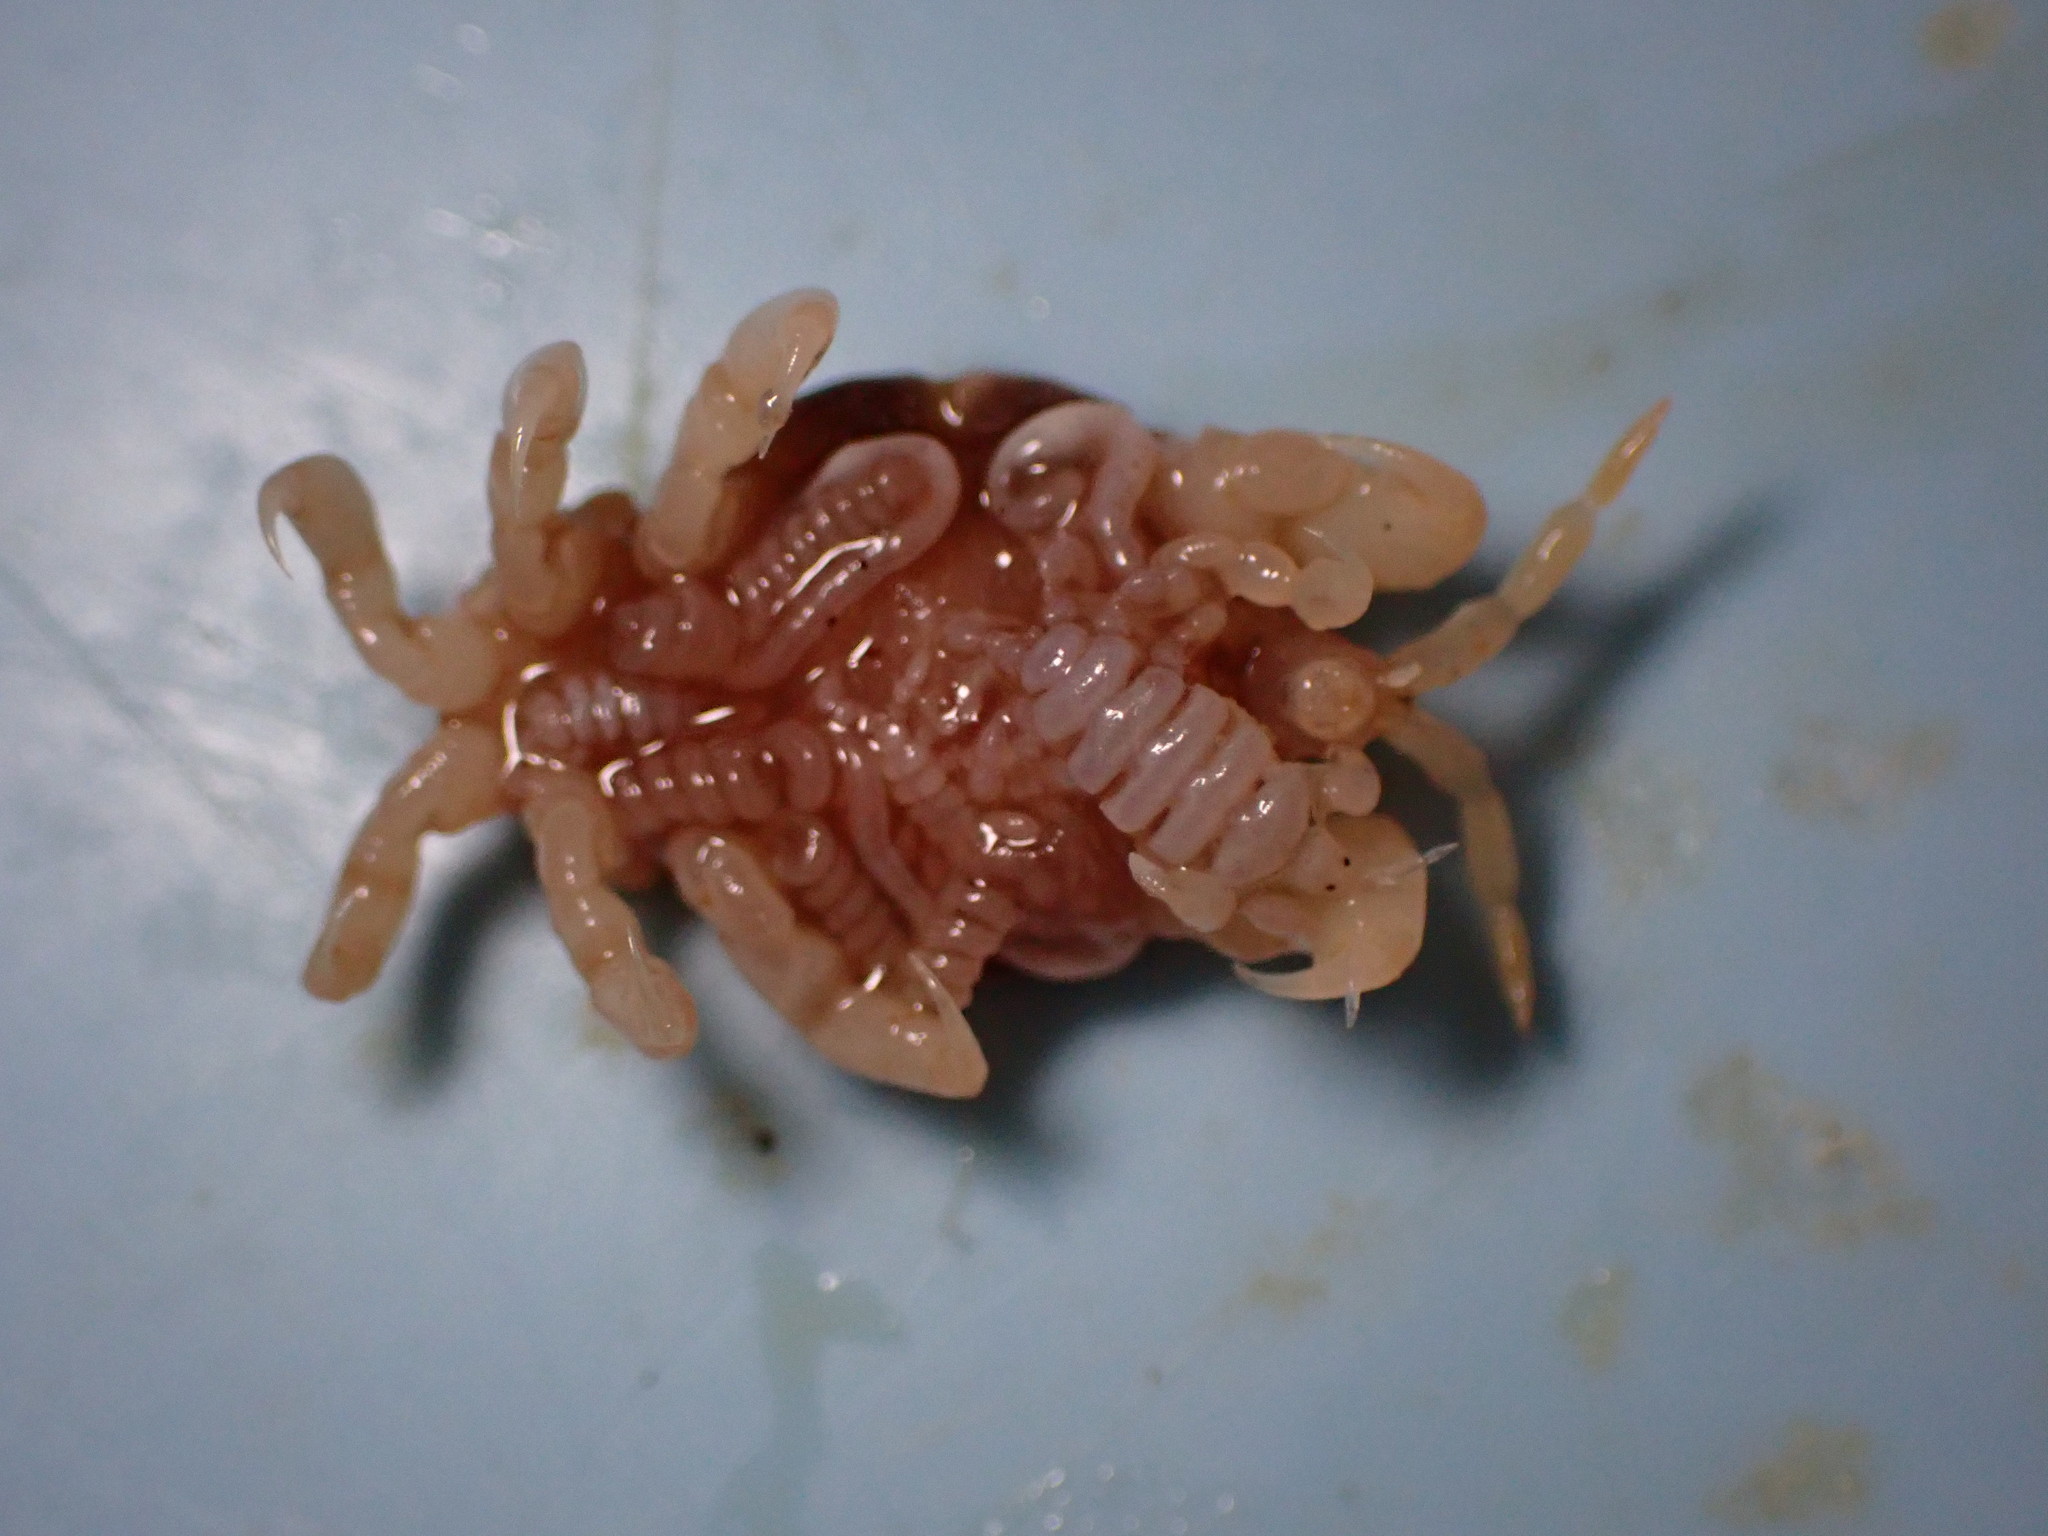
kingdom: Animalia
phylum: Arthropoda
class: Malacostraca
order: Amphipoda
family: Cyamidae
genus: Cyamus
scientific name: Cyamus scammoni
